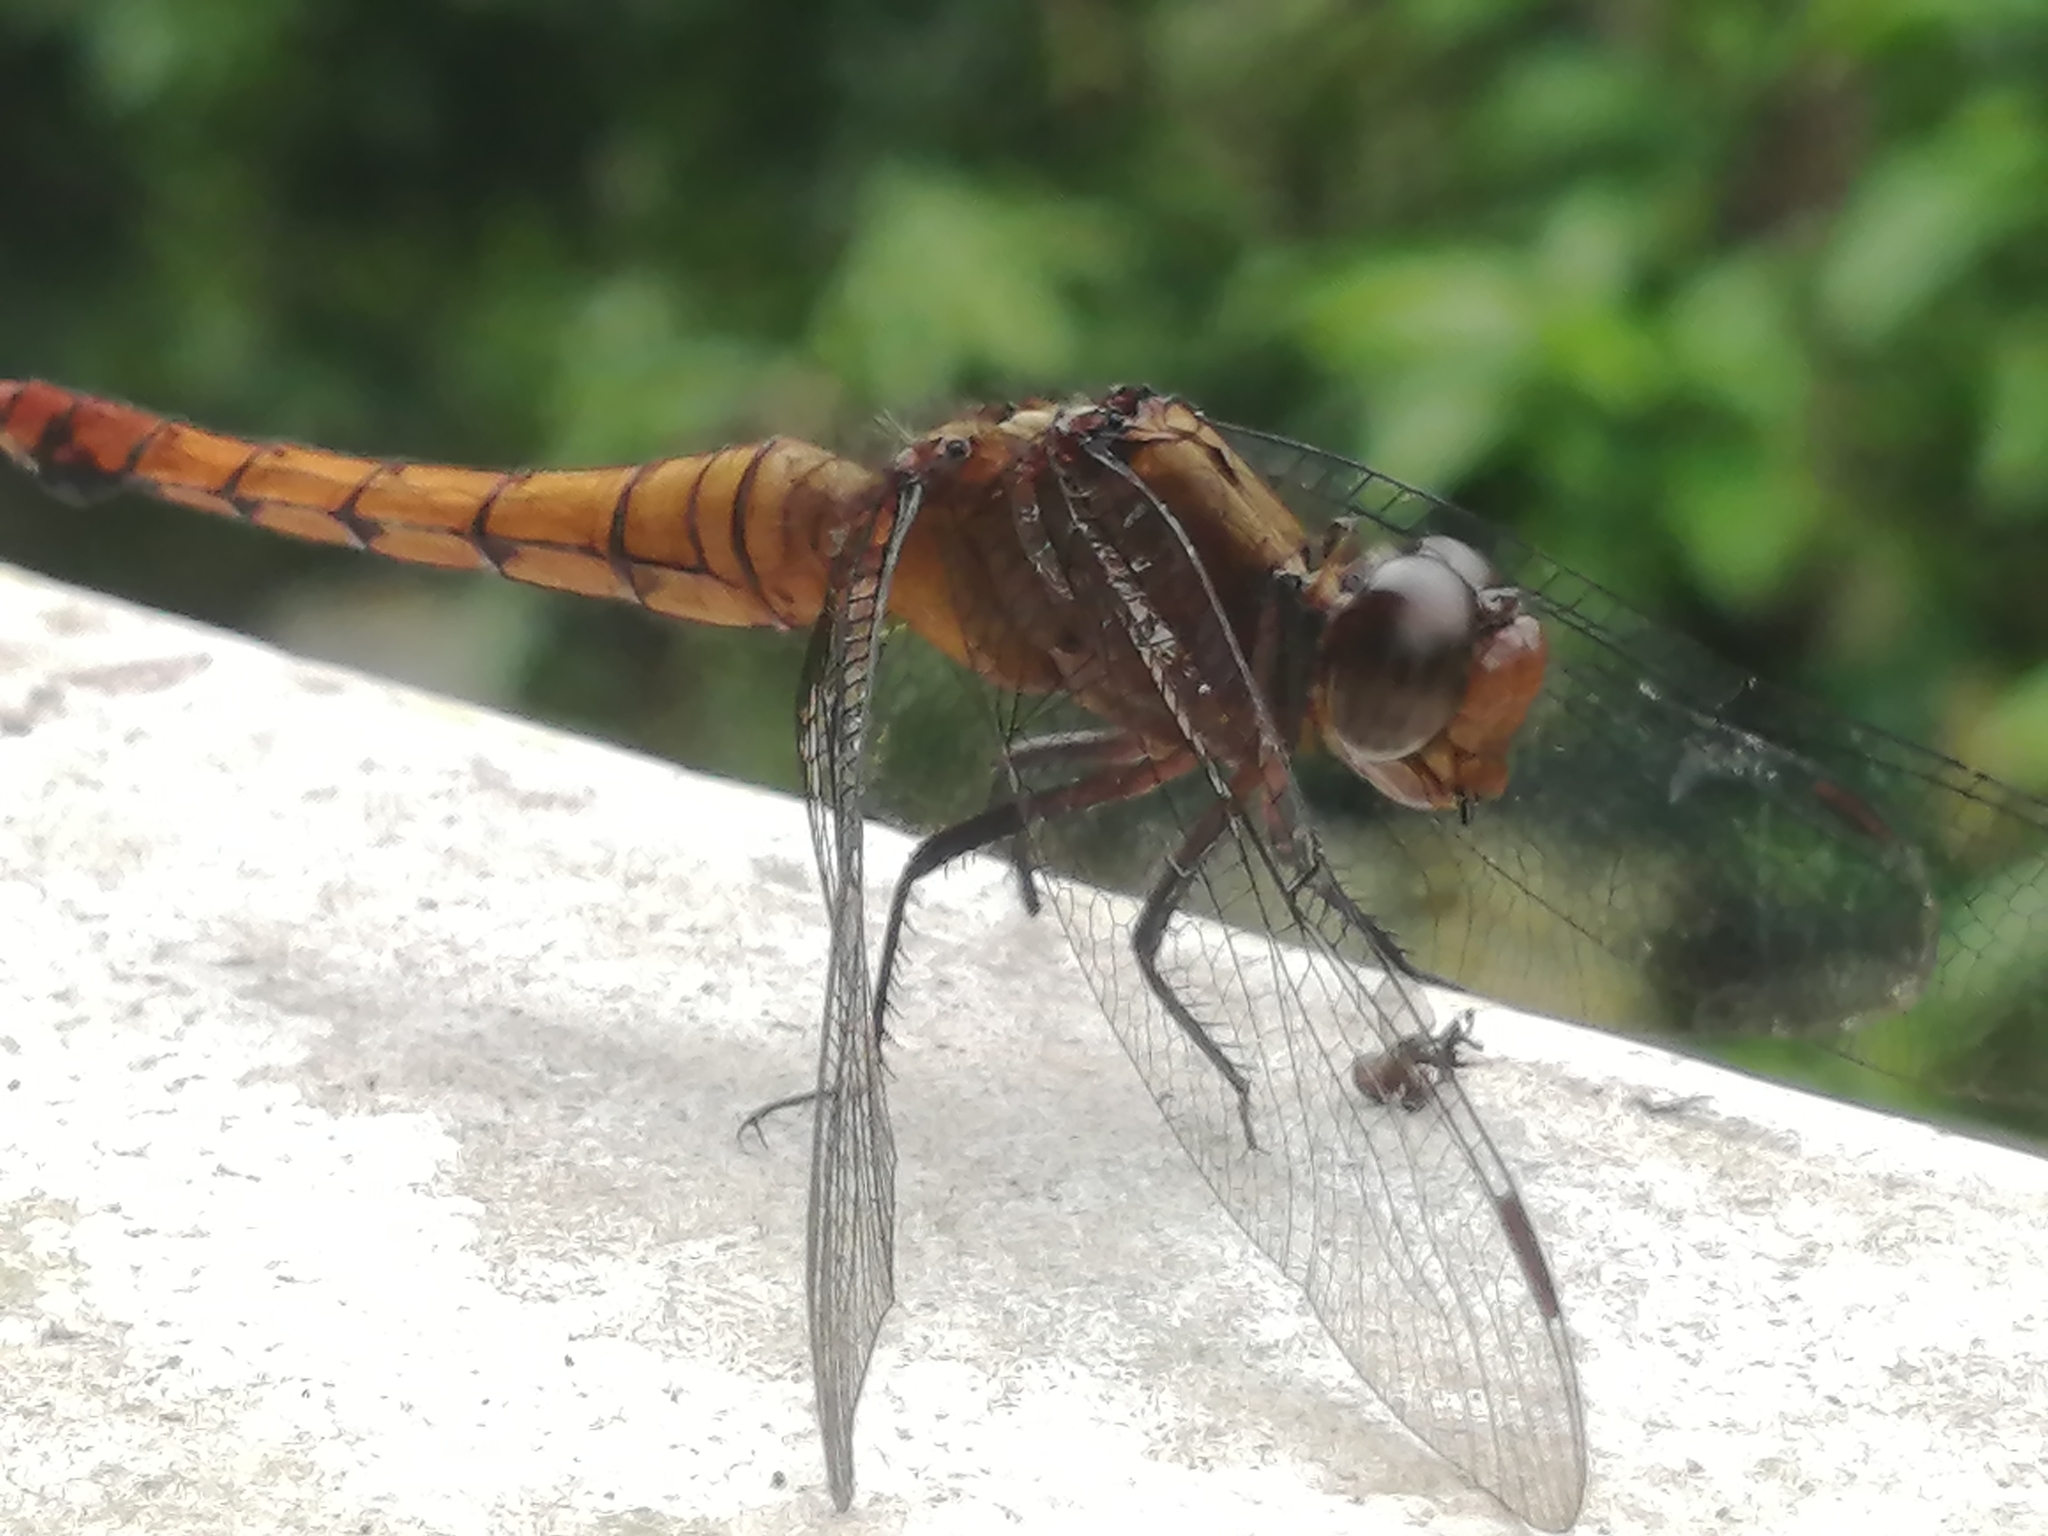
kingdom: Animalia
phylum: Arthropoda
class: Insecta
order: Odonata
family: Libellulidae
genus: Orthetrum
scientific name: Orthetrum chrysis
